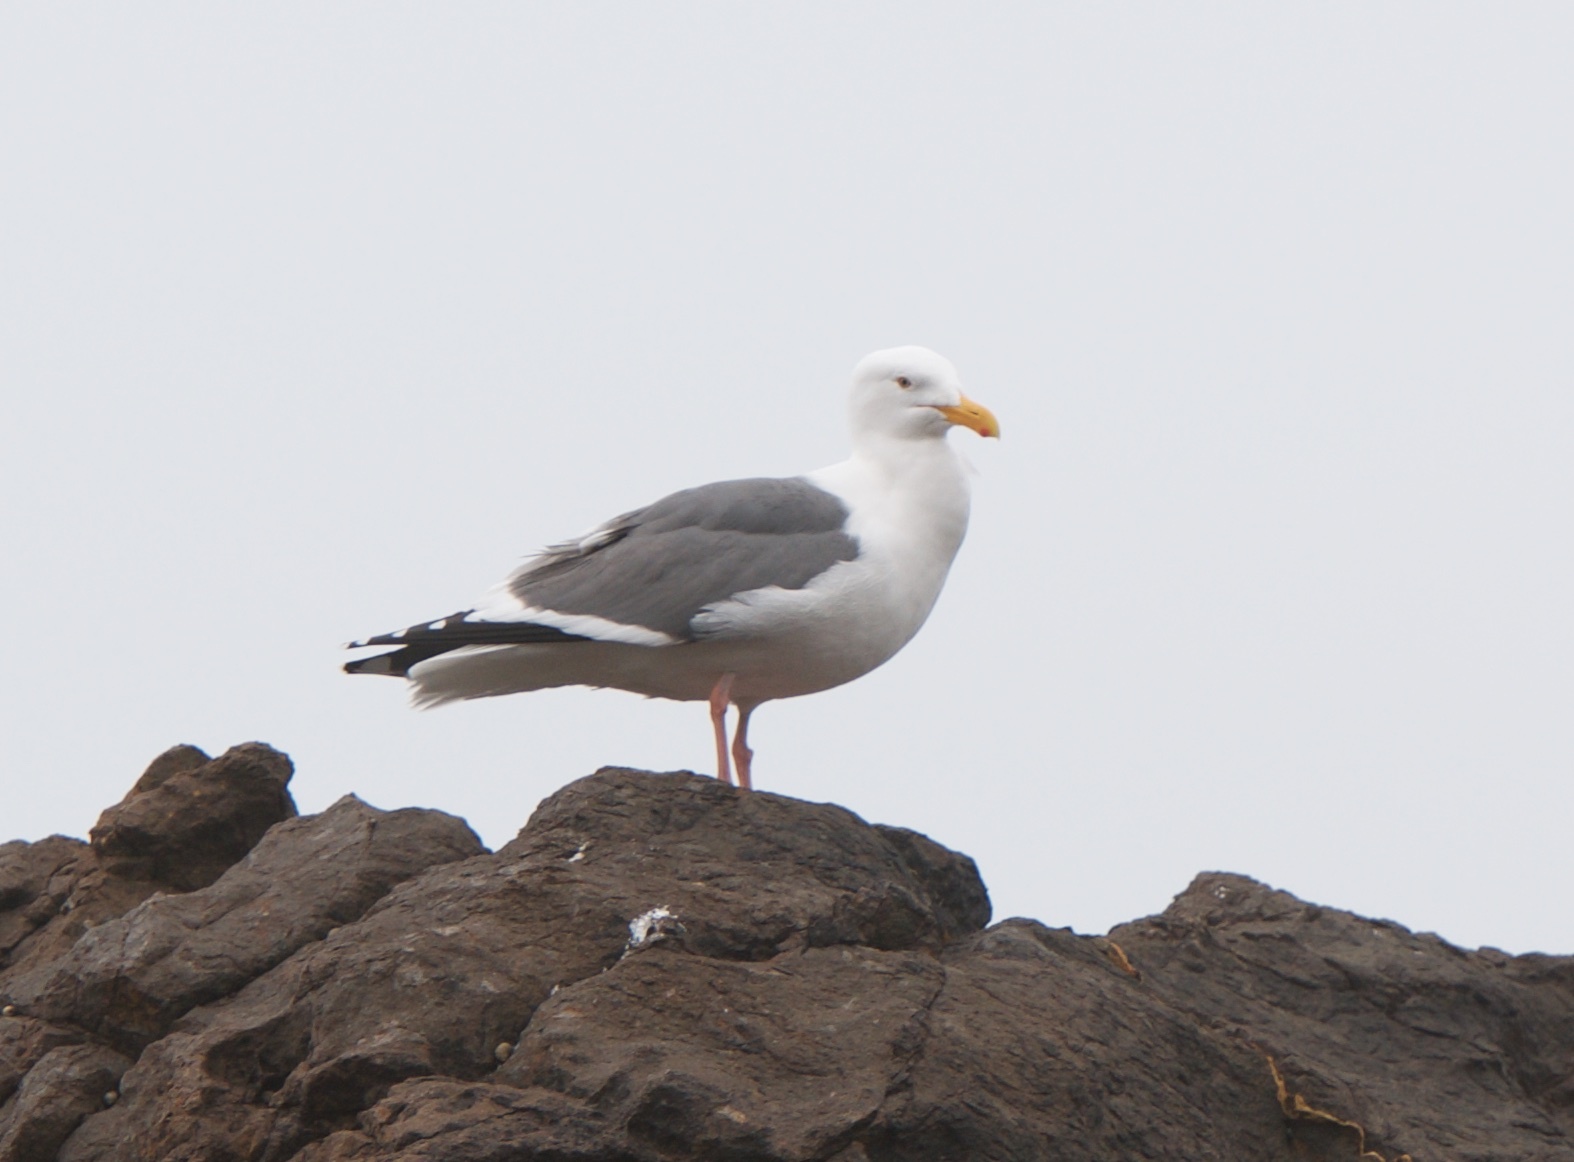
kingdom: Animalia
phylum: Chordata
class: Aves
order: Charadriiformes
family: Laridae
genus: Larus
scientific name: Larus occidentalis
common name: Western gull
